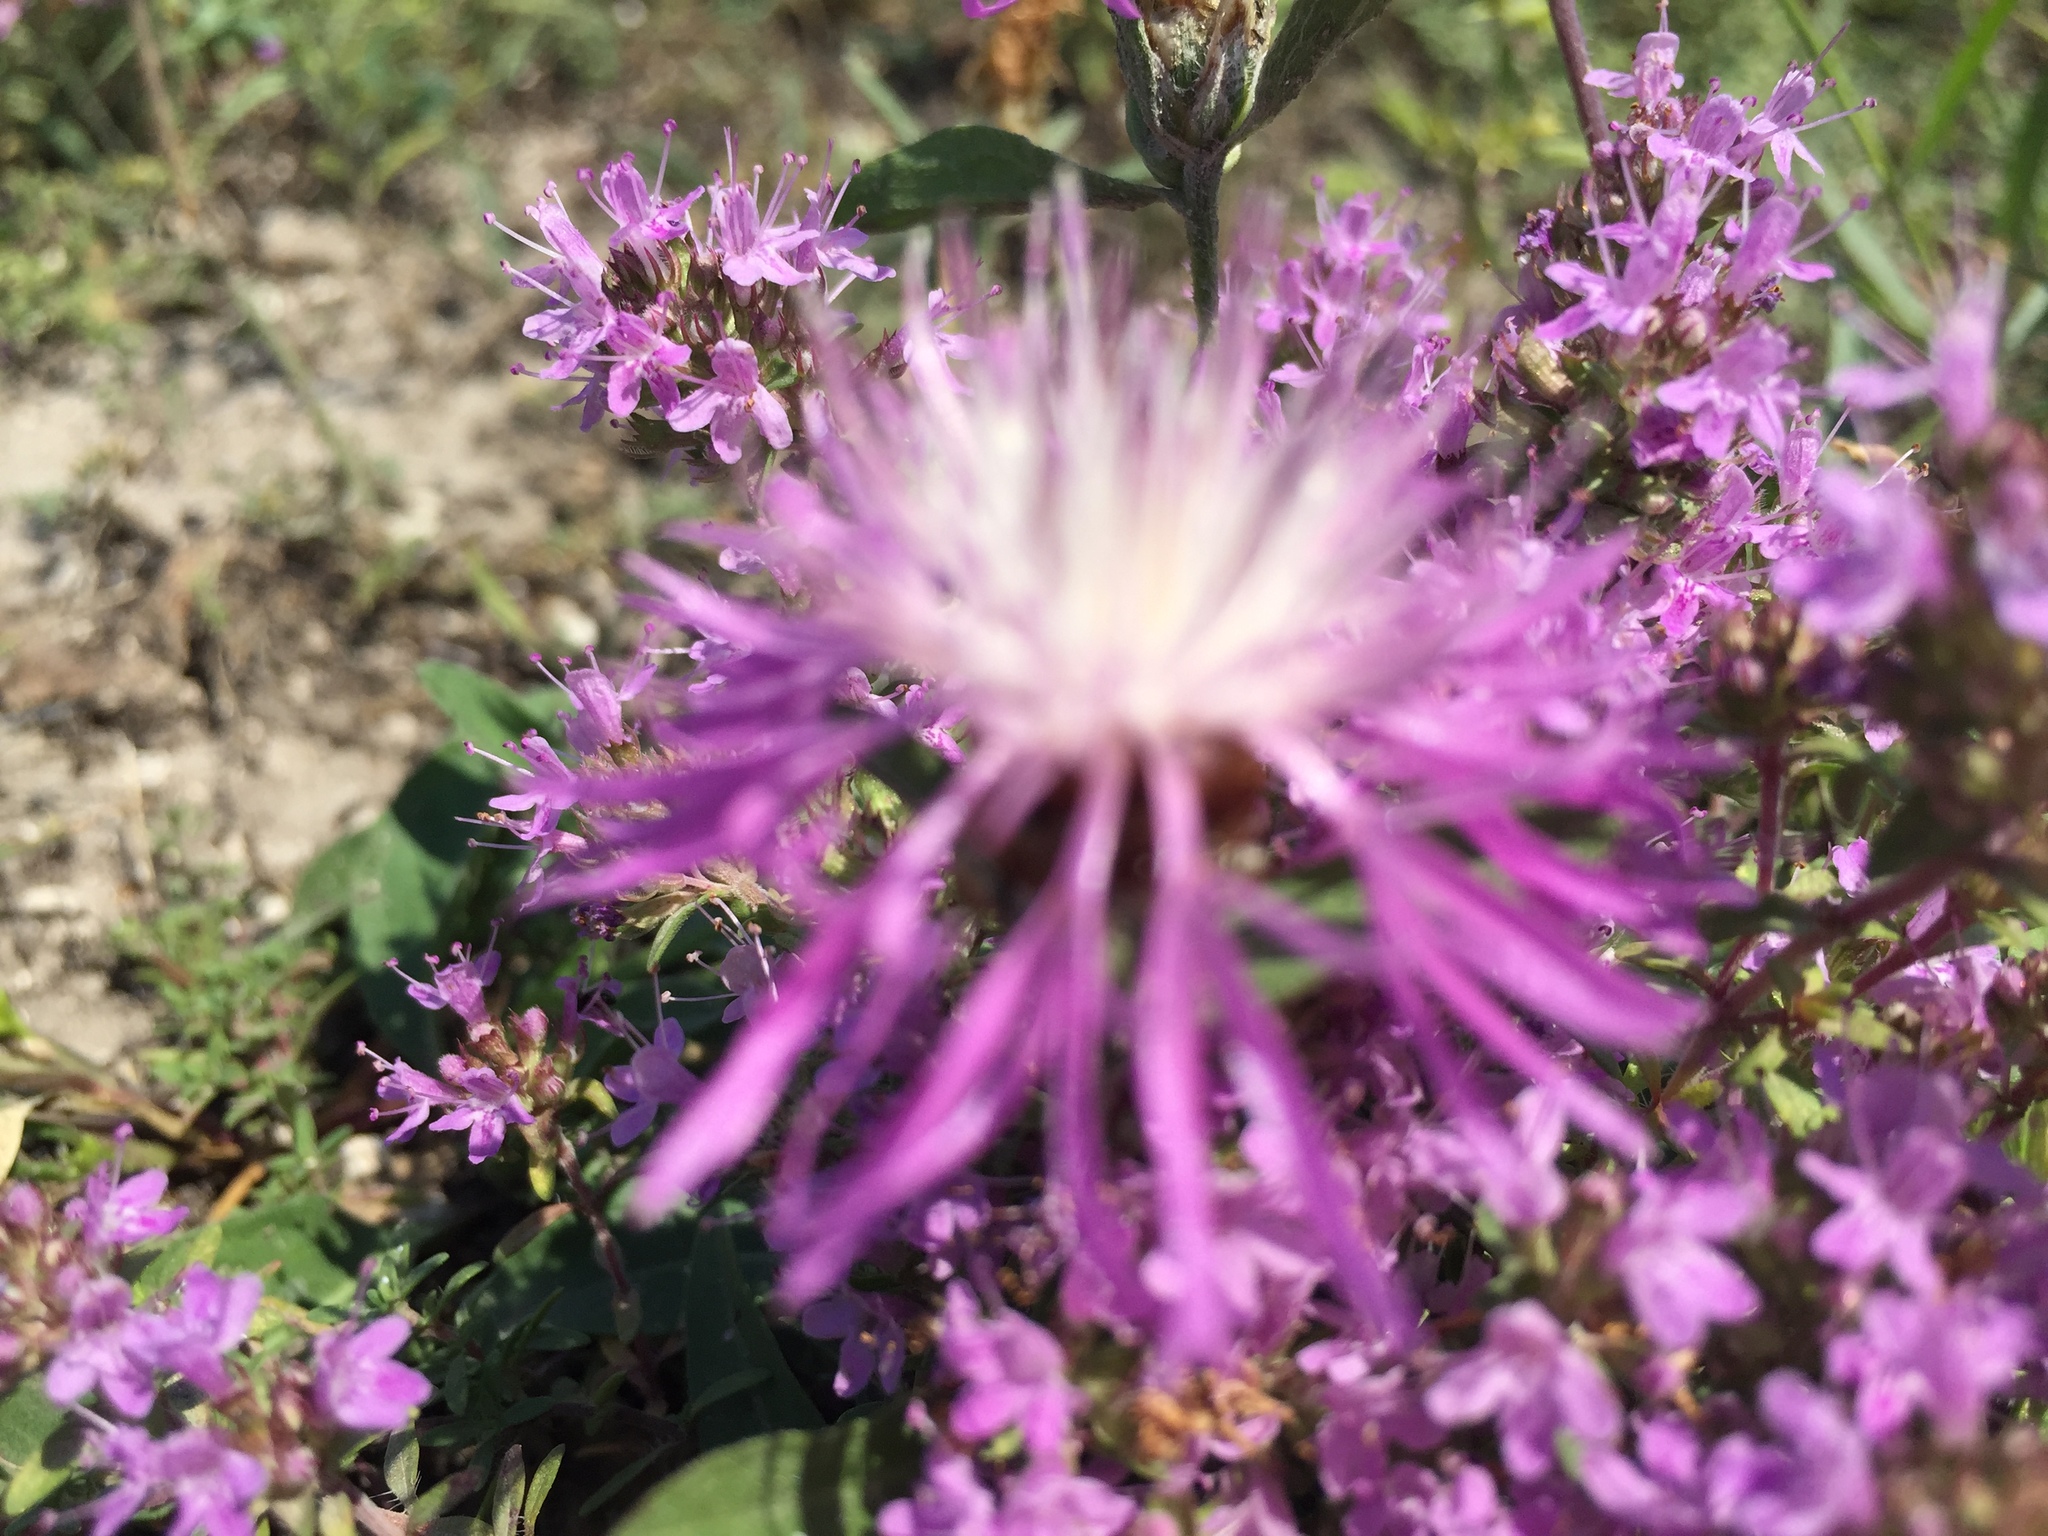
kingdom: Plantae
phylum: Tracheophyta
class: Magnoliopsida
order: Asterales
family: Asteraceae
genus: Centaurea
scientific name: Centaurea jacea
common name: Brown knapweed
